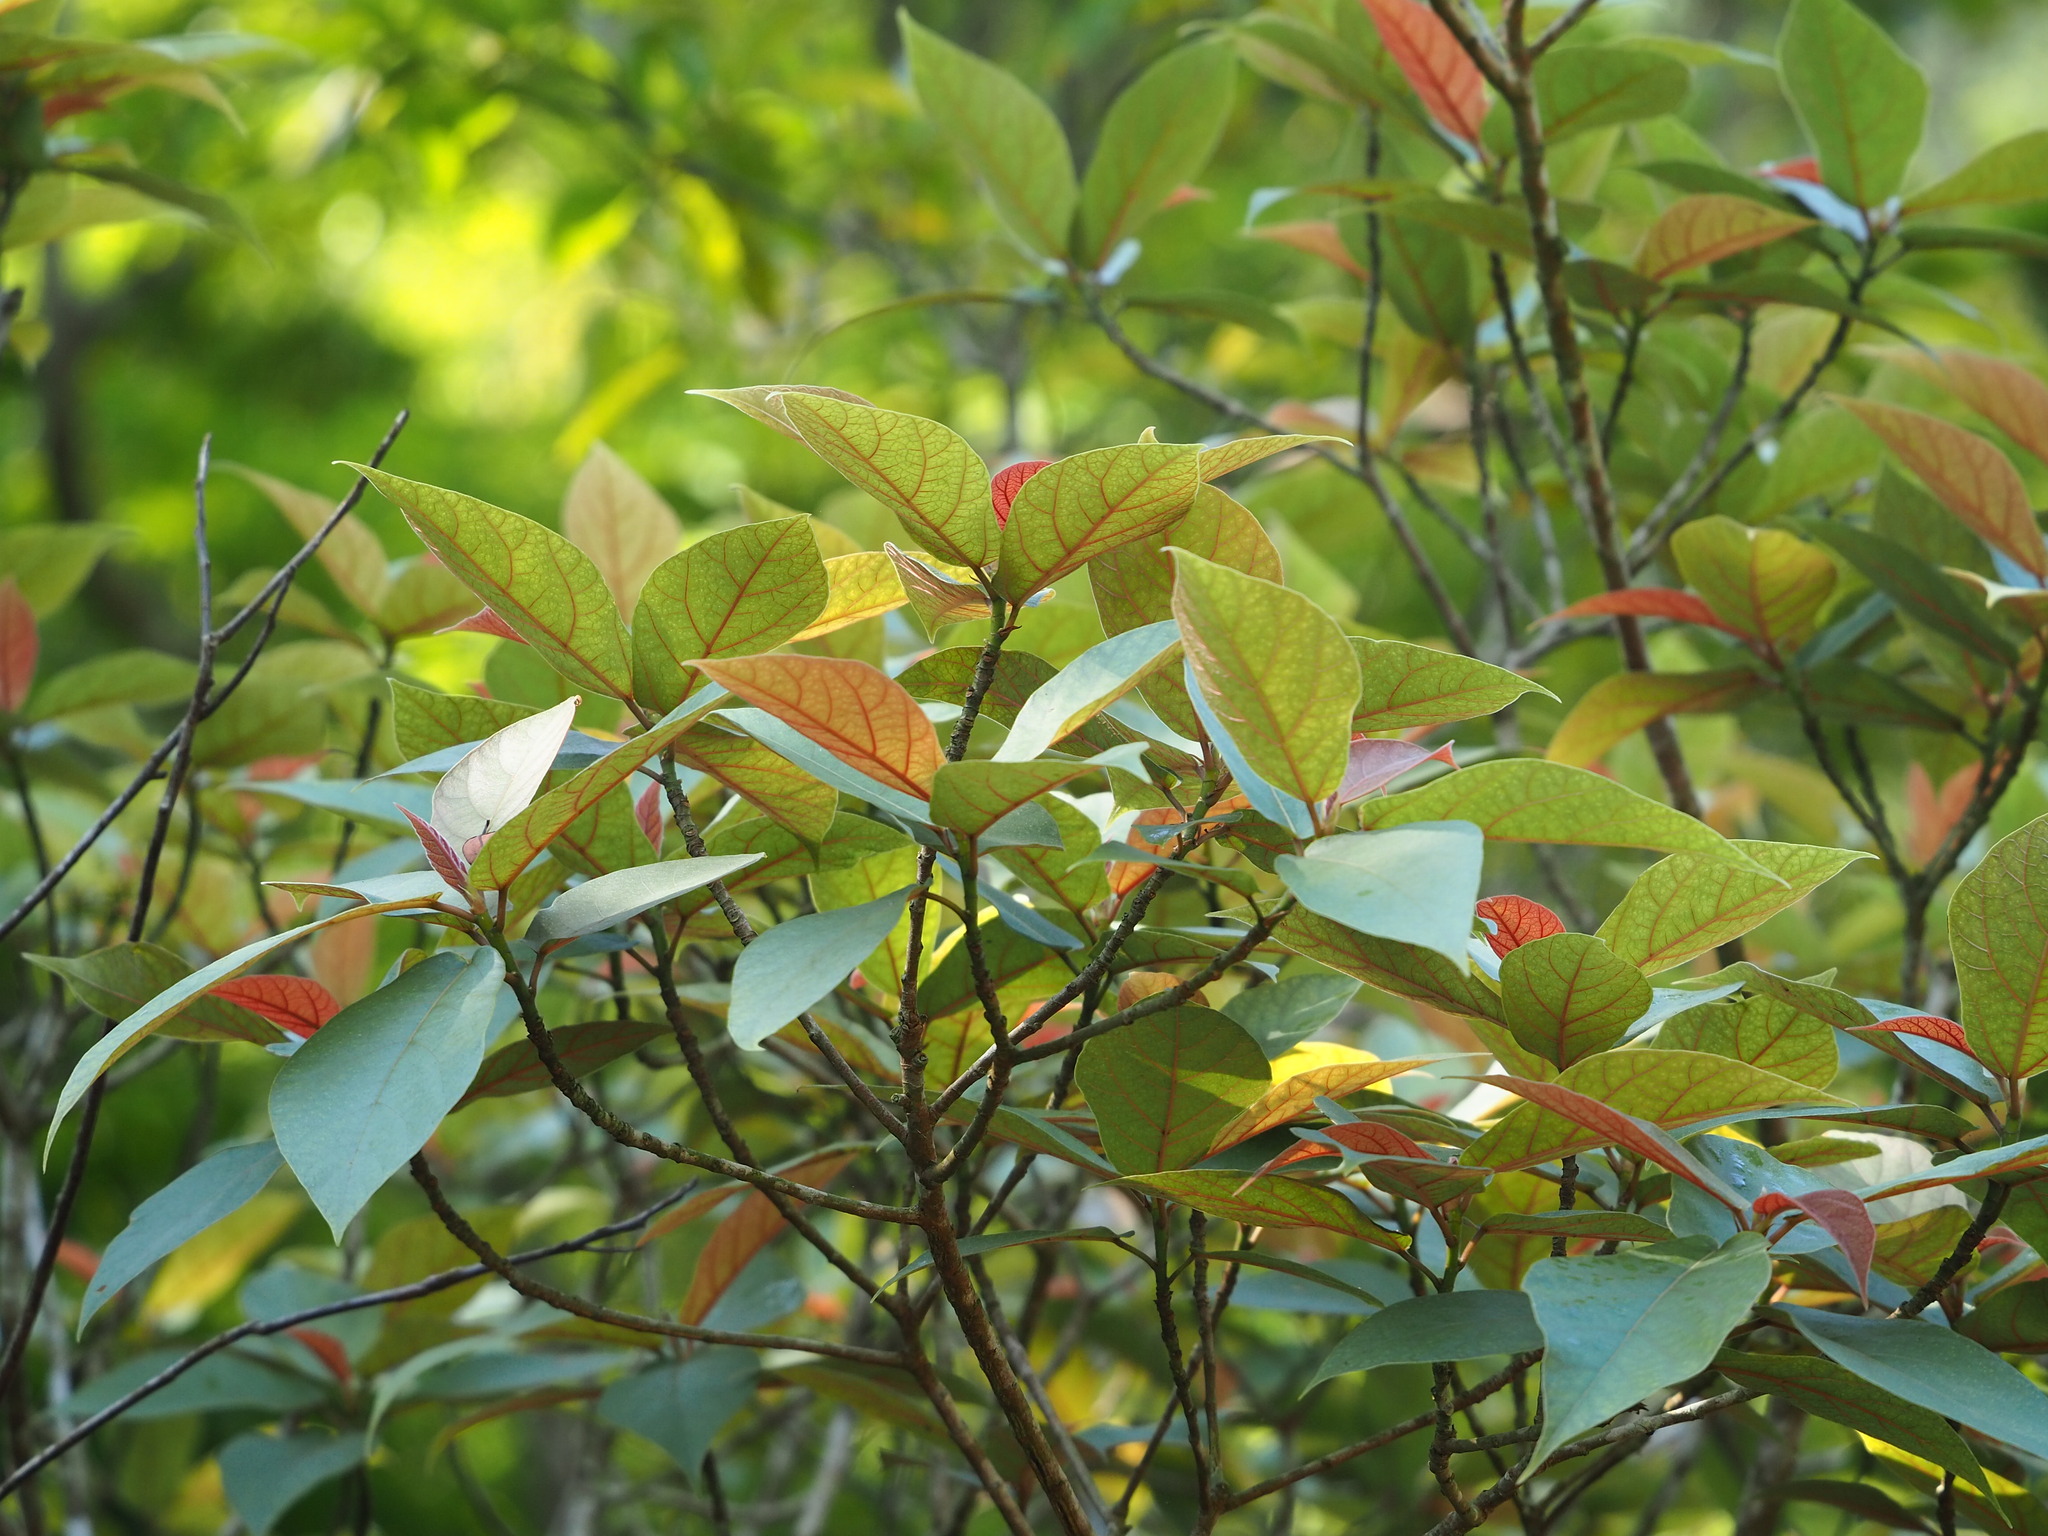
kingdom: Plantae
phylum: Tracheophyta
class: Magnoliopsida
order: Rosales
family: Moraceae
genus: Ficus
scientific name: Ficus erecta
